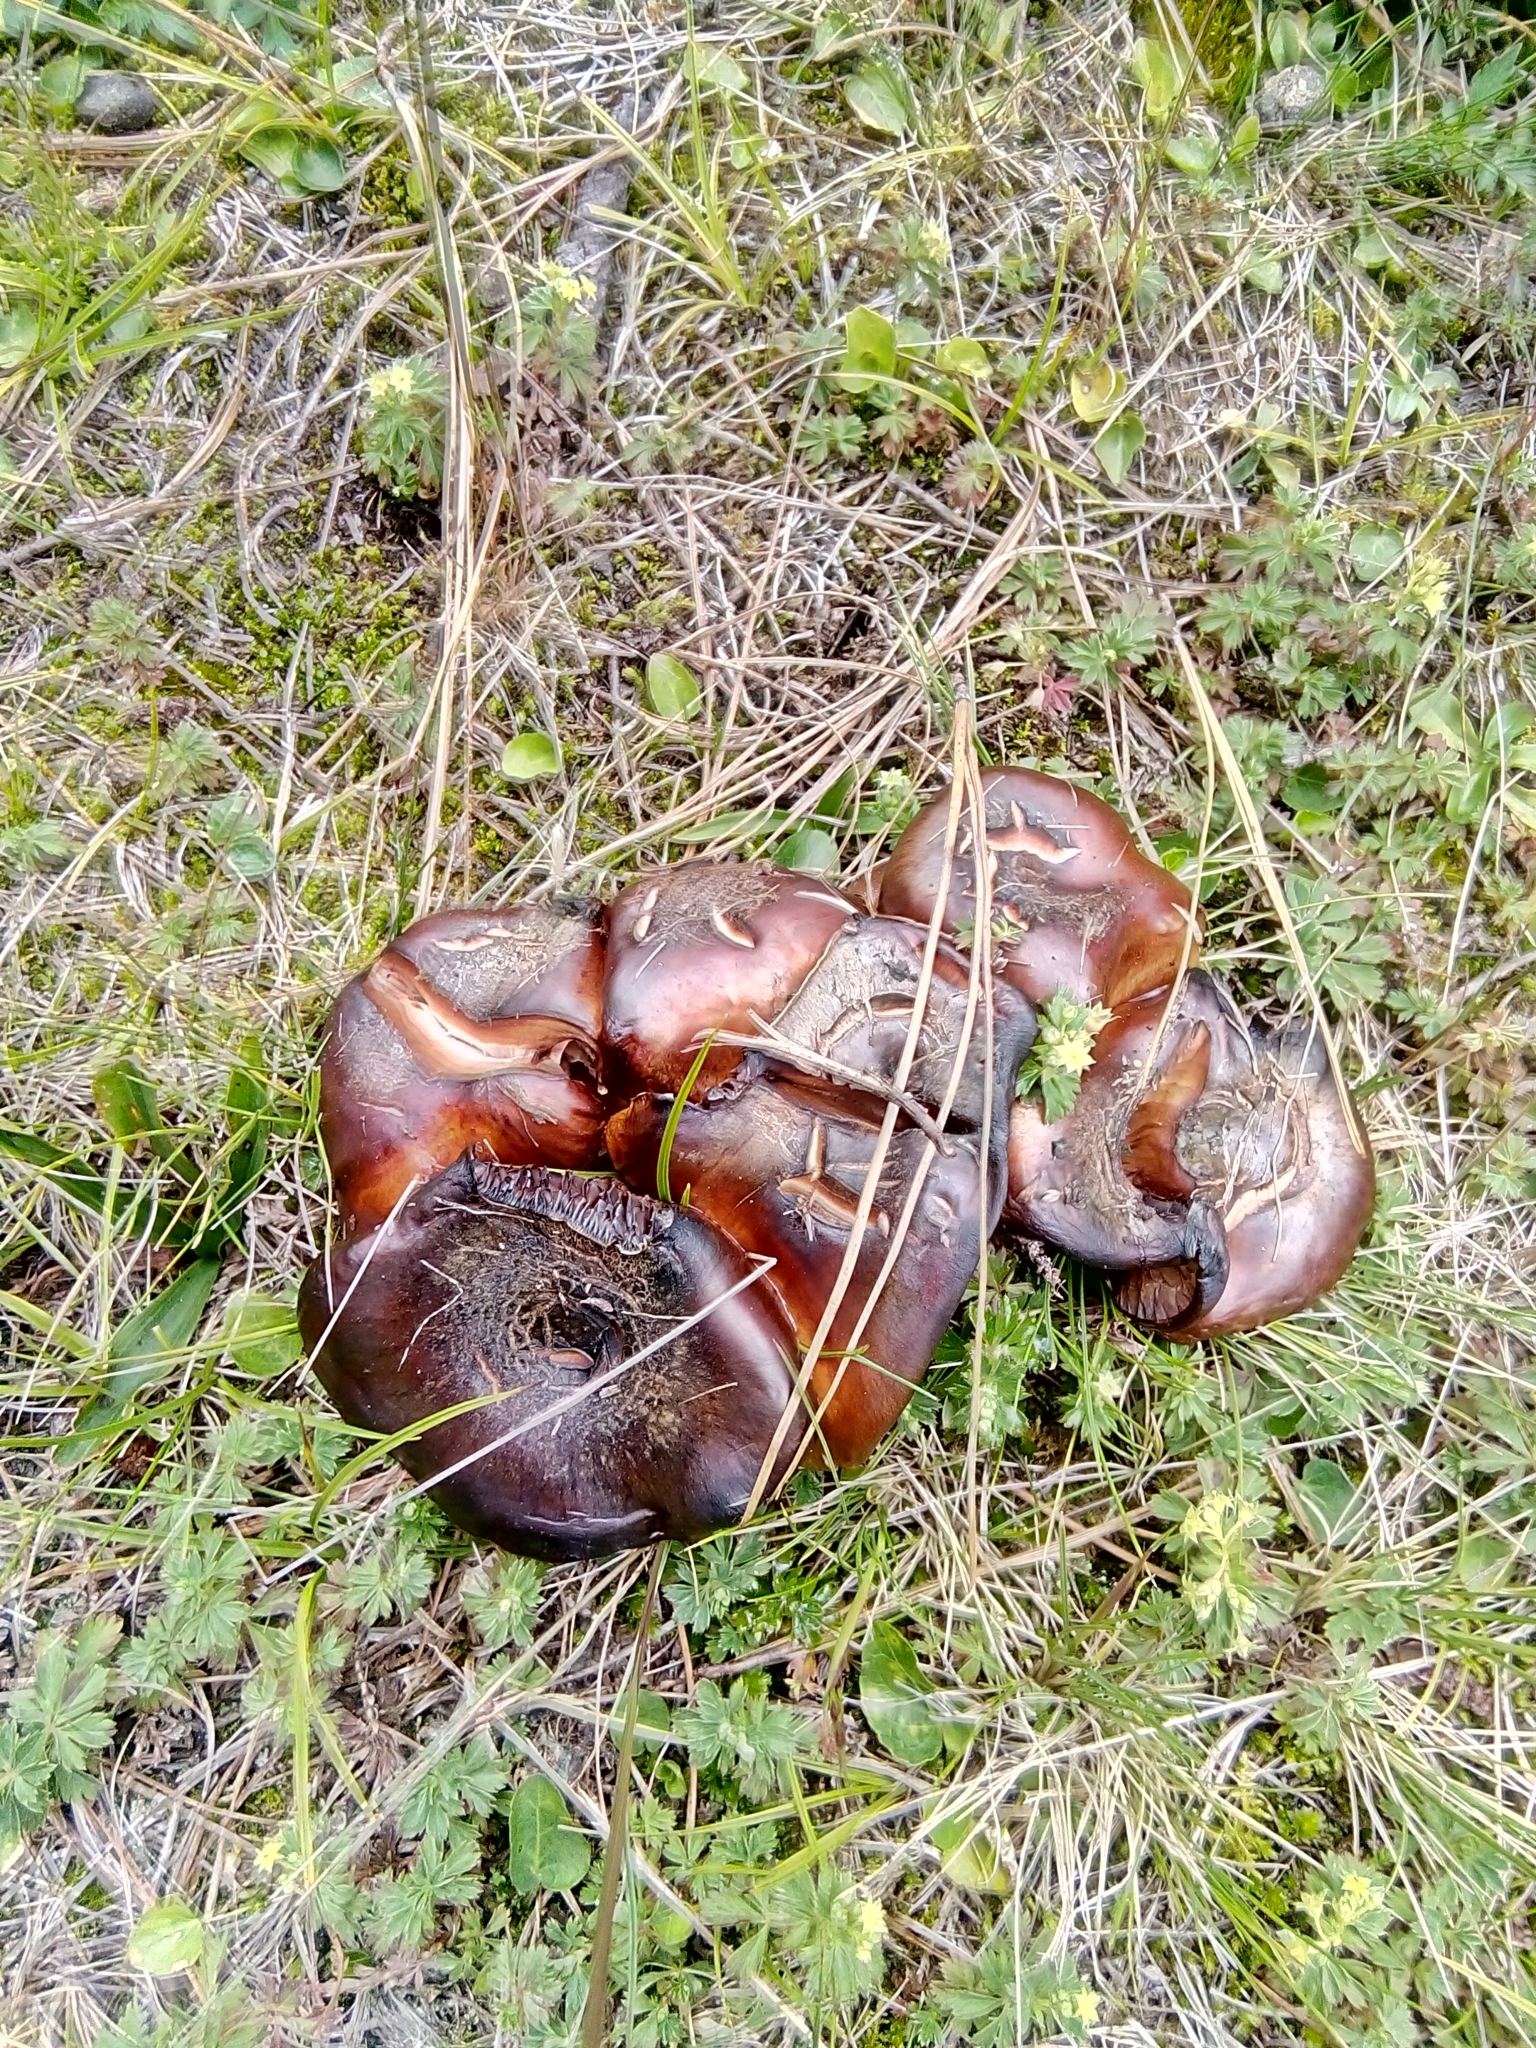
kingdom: Fungi
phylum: Basidiomycota
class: Agaricomycetes
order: Agaricales
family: Lyophyllaceae
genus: Lyophyllum
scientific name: Lyophyllum decastes
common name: Clustered domecap
